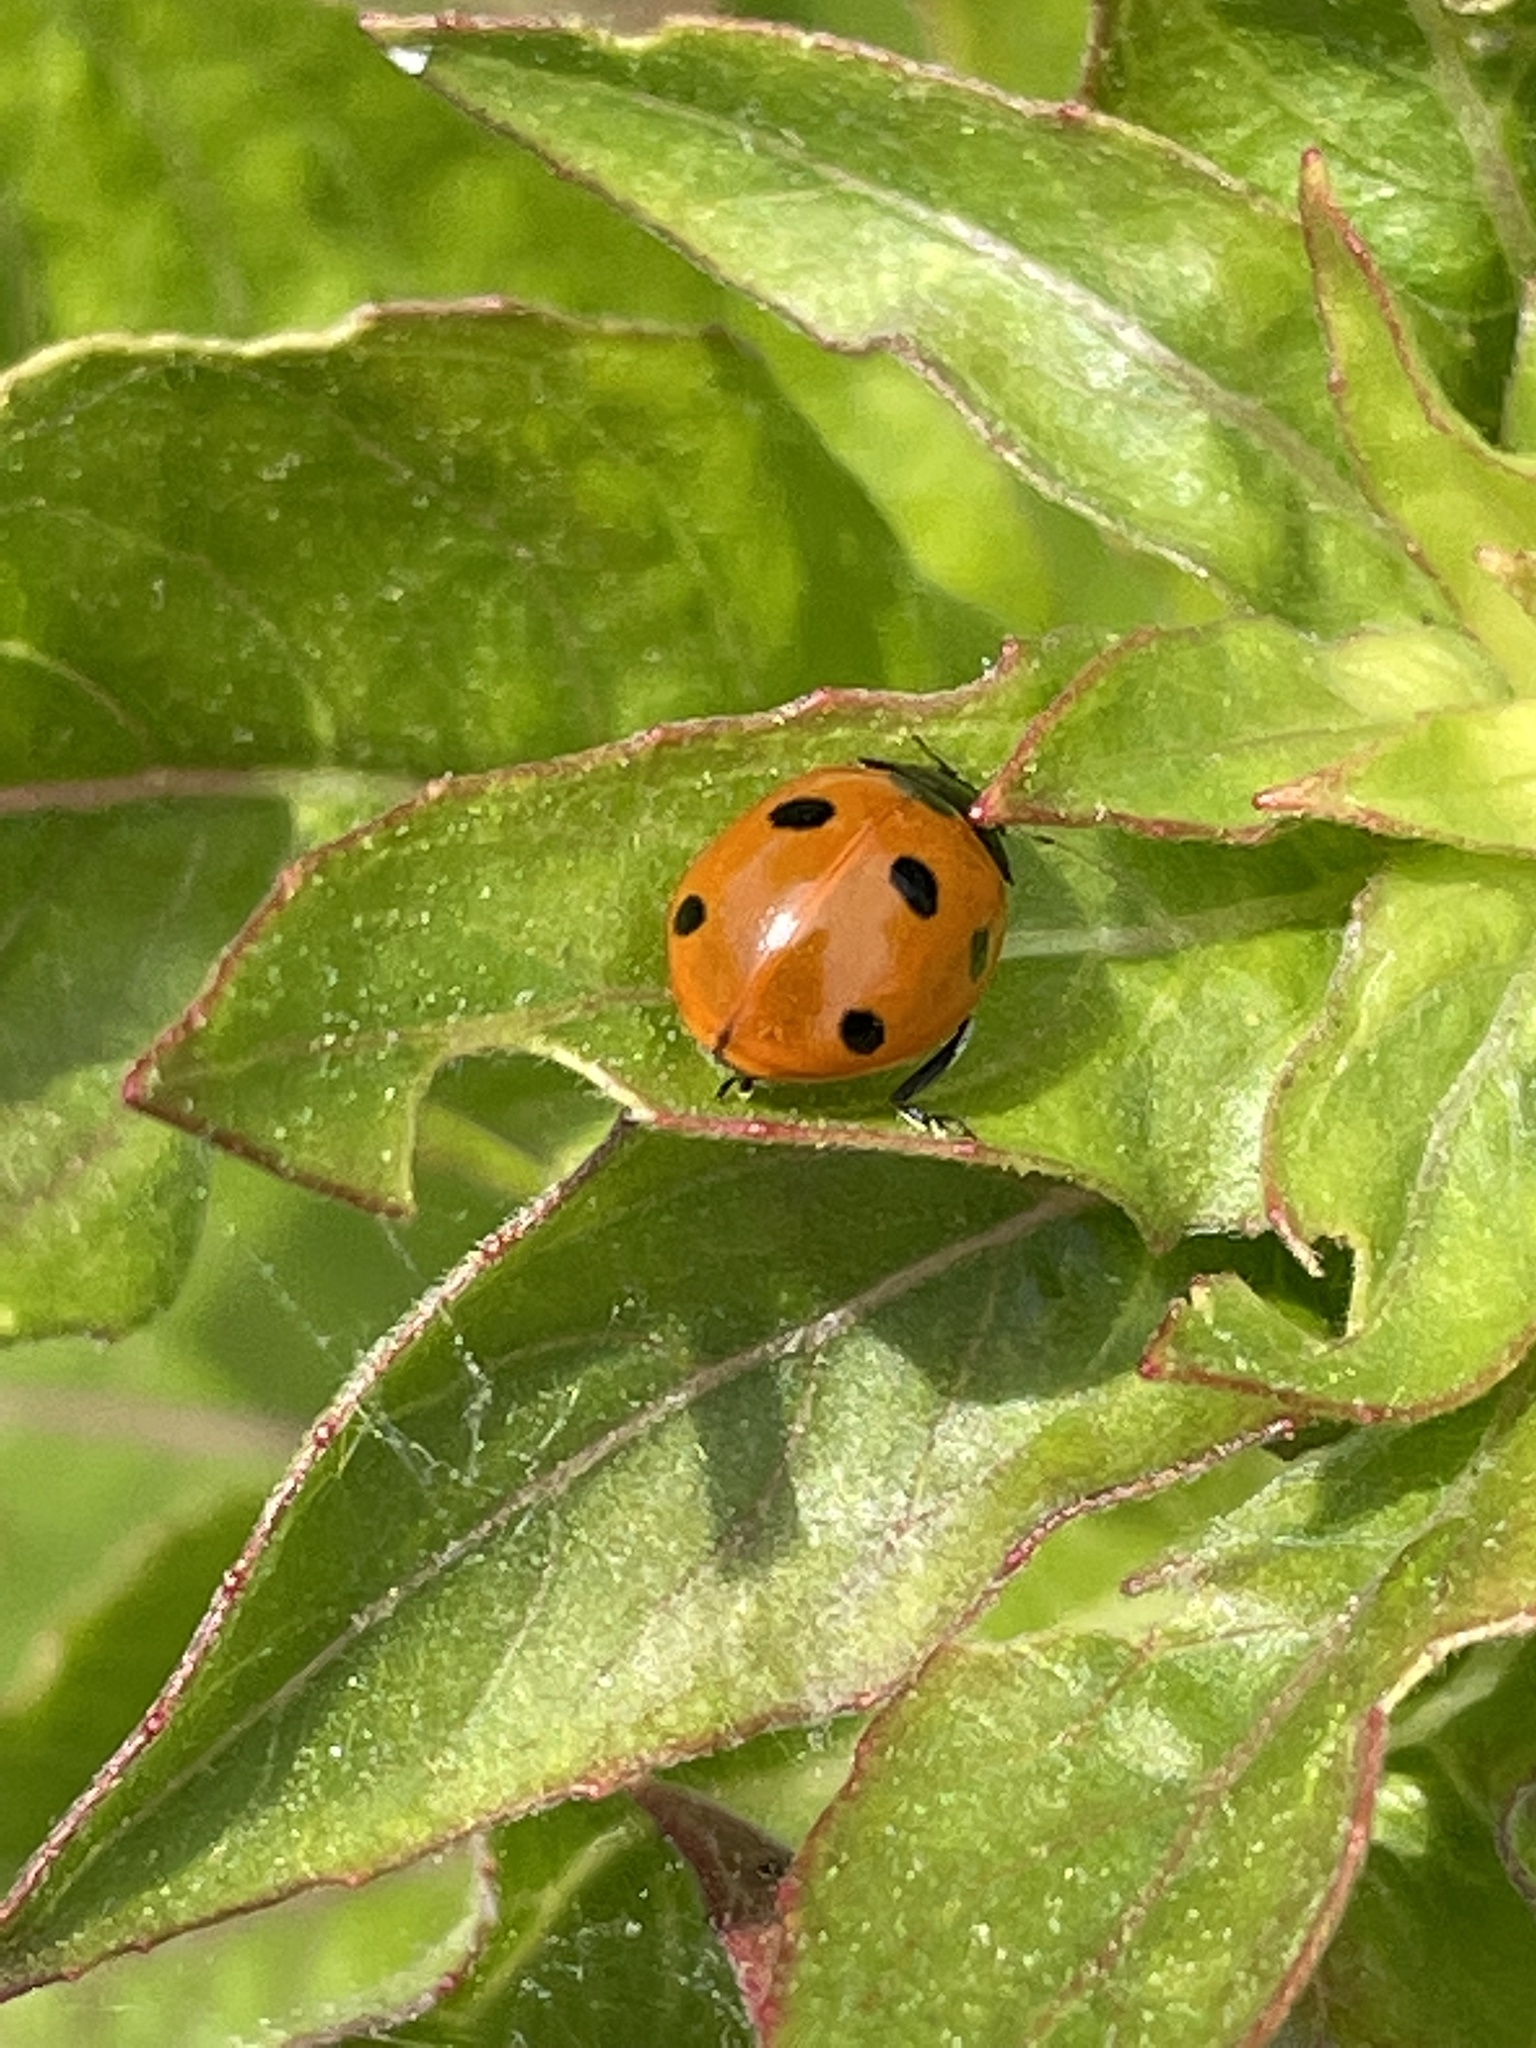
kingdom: Animalia
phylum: Arthropoda
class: Insecta
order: Coleoptera
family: Coccinellidae
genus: Coccinella
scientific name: Coccinella septempunctata
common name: Sevenspotted lady beetle
